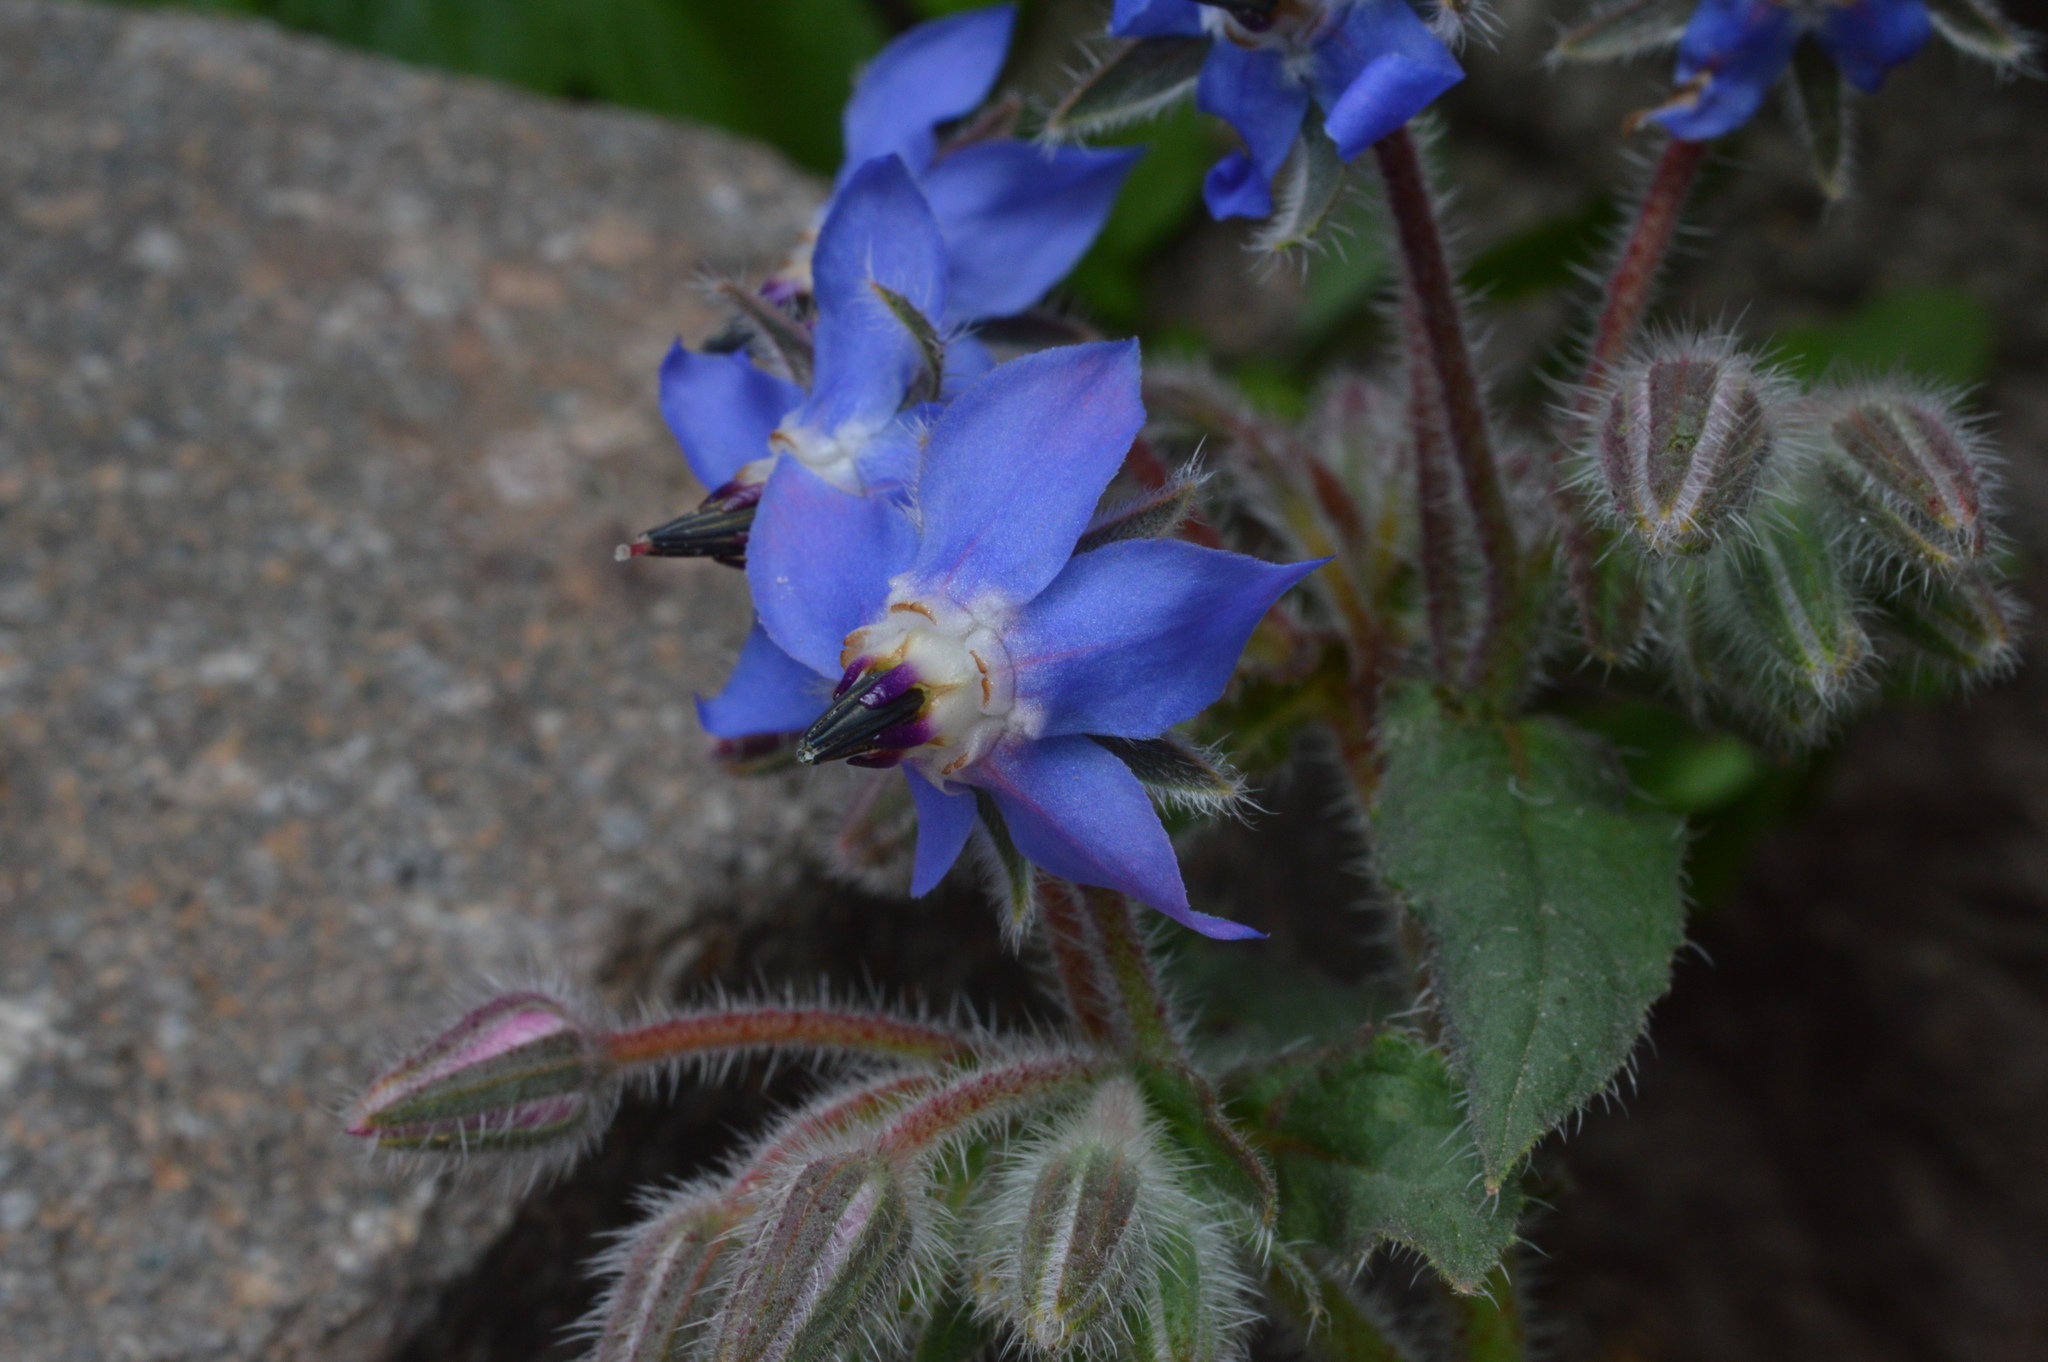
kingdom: Plantae
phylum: Tracheophyta
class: Magnoliopsida
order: Boraginales
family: Boraginaceae
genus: Borago
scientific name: Borago officinalis
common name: Borage
